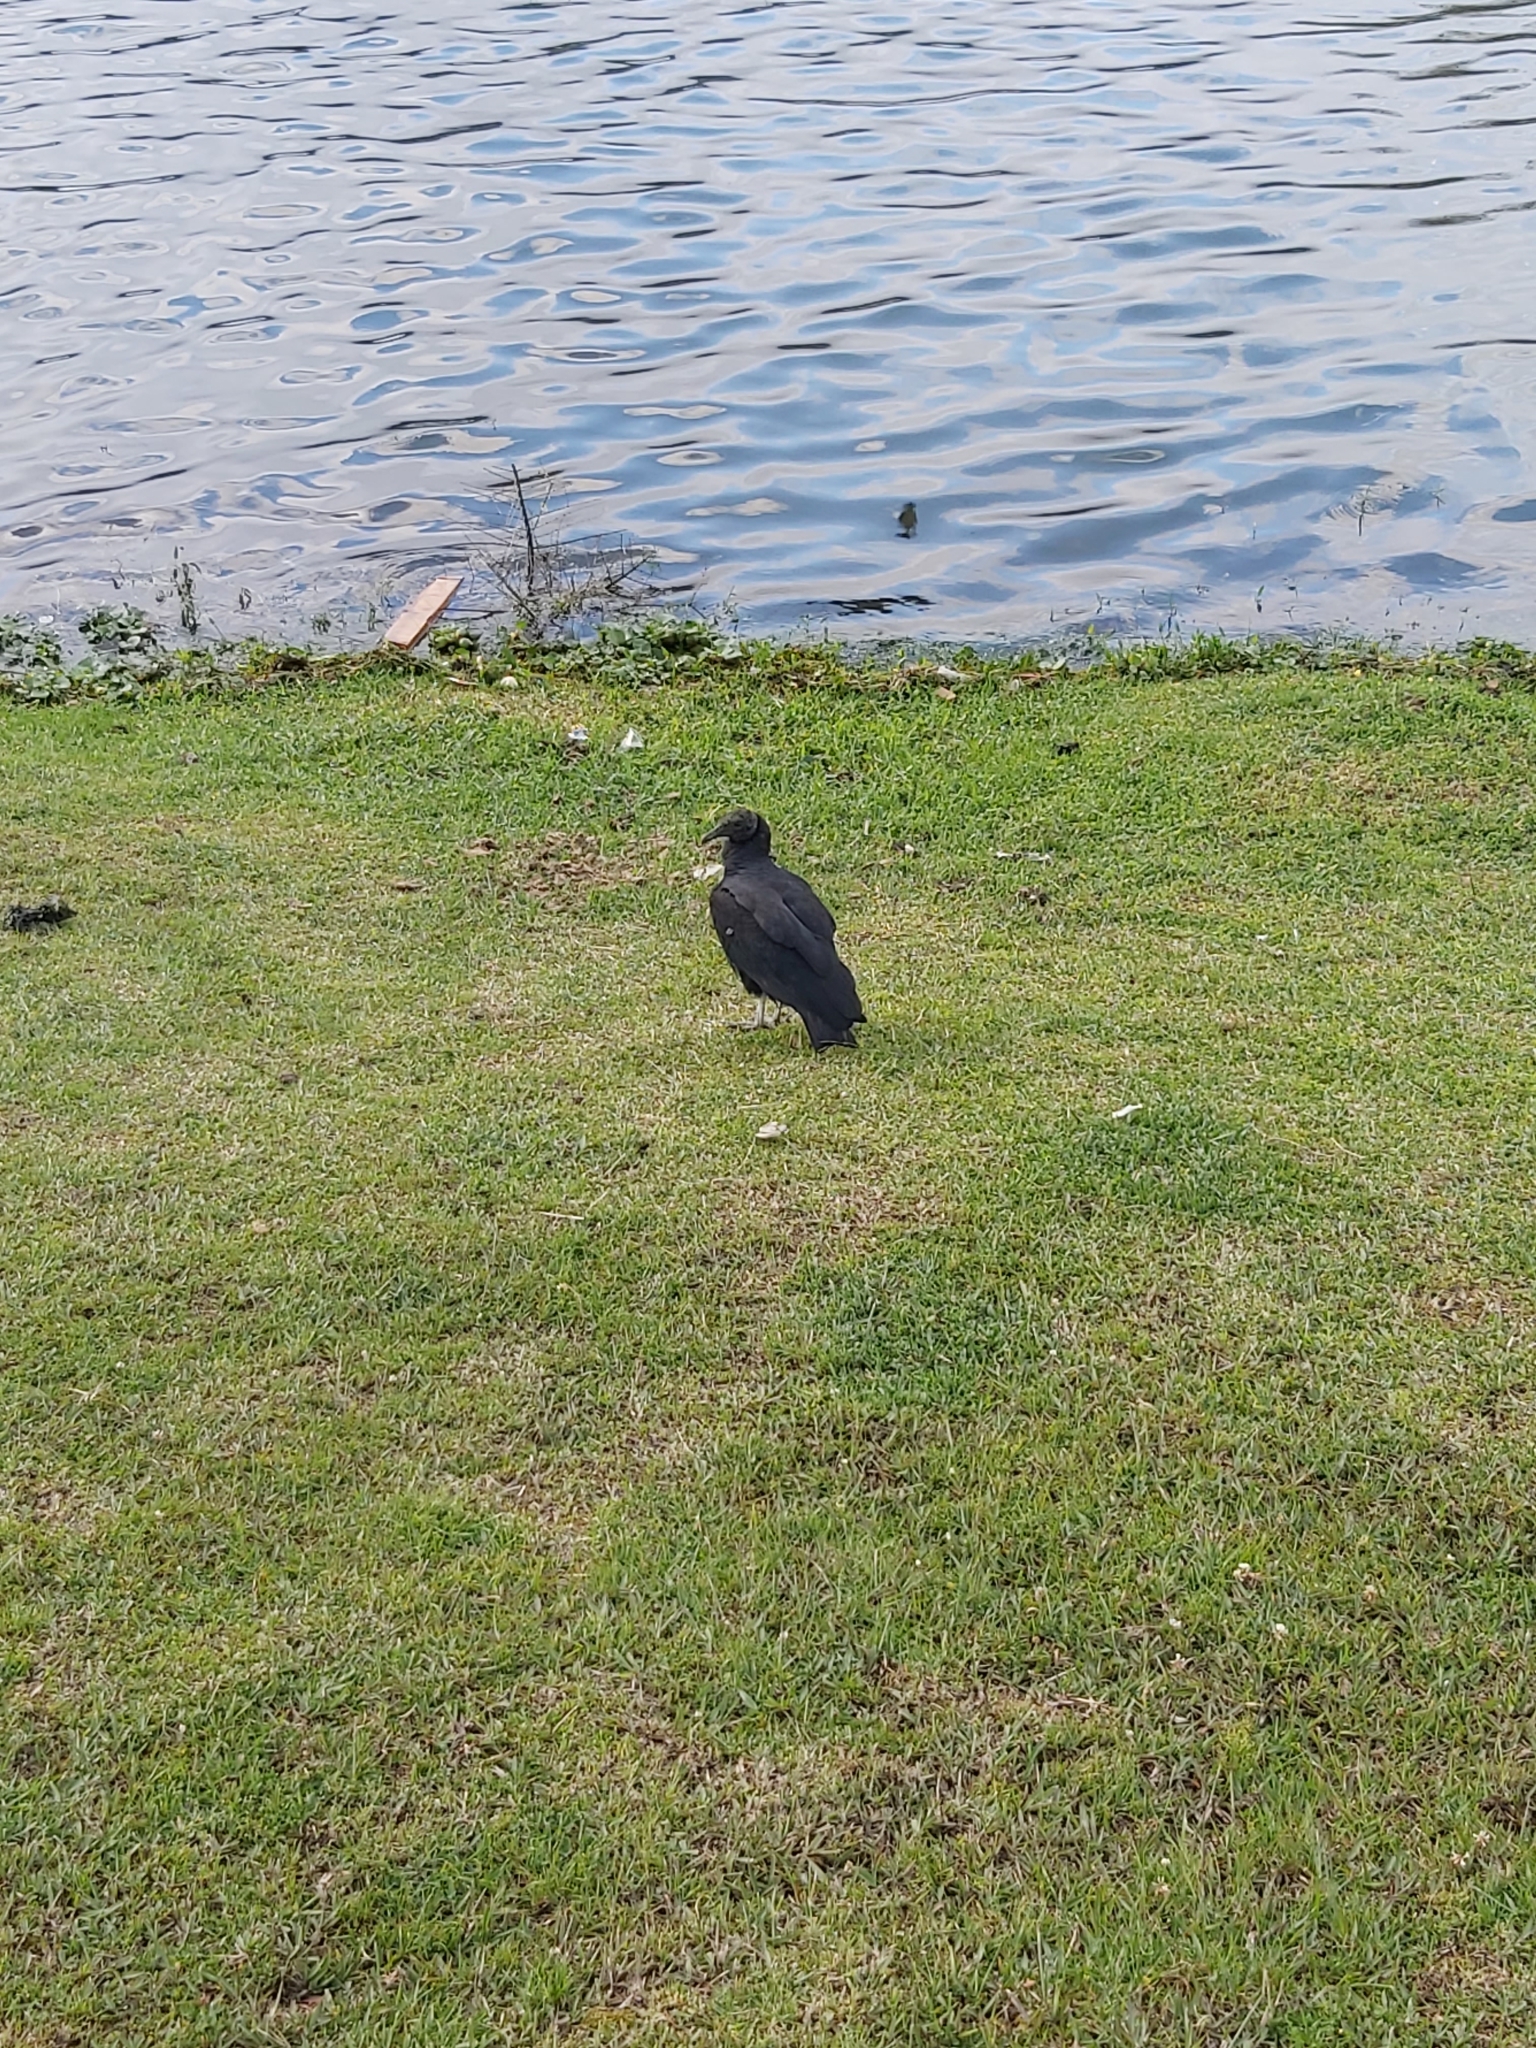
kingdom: Animalia
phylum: Chordata
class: Aves
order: Accipitriformes
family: Cathartidae
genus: Coragyps
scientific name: Coragyps atratus
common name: Black vulture
